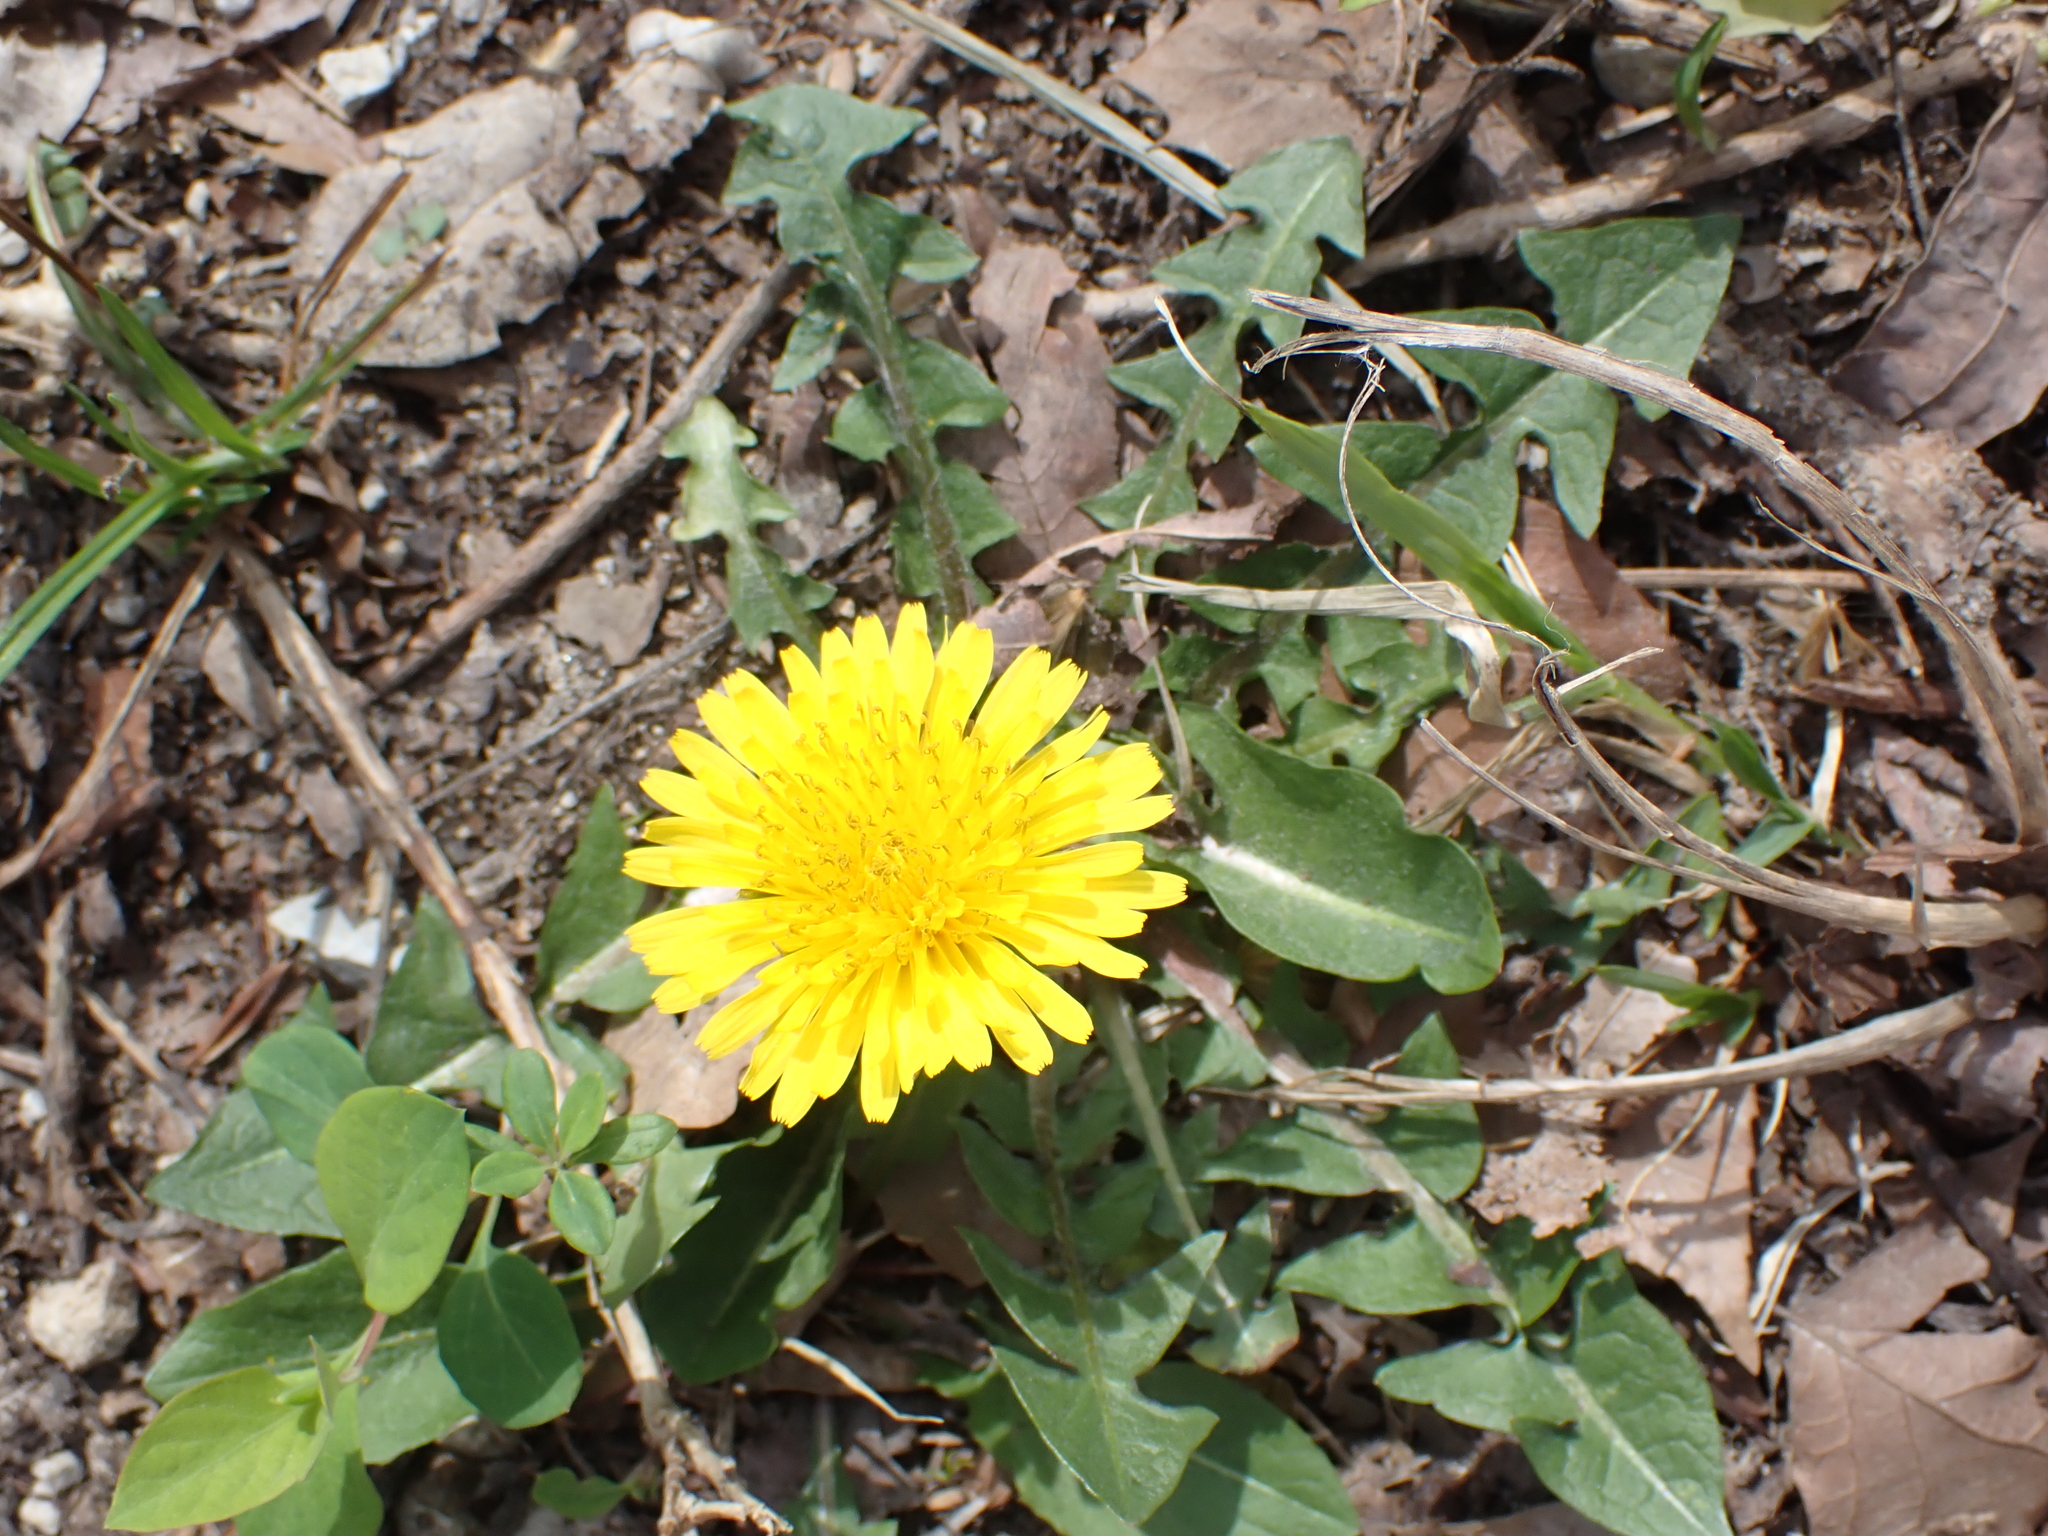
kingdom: Plantae
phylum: Tracheophyta
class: Magnoliopsida
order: Asterales
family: Asteraceae
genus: Taraxacum
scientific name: Taraxacum
